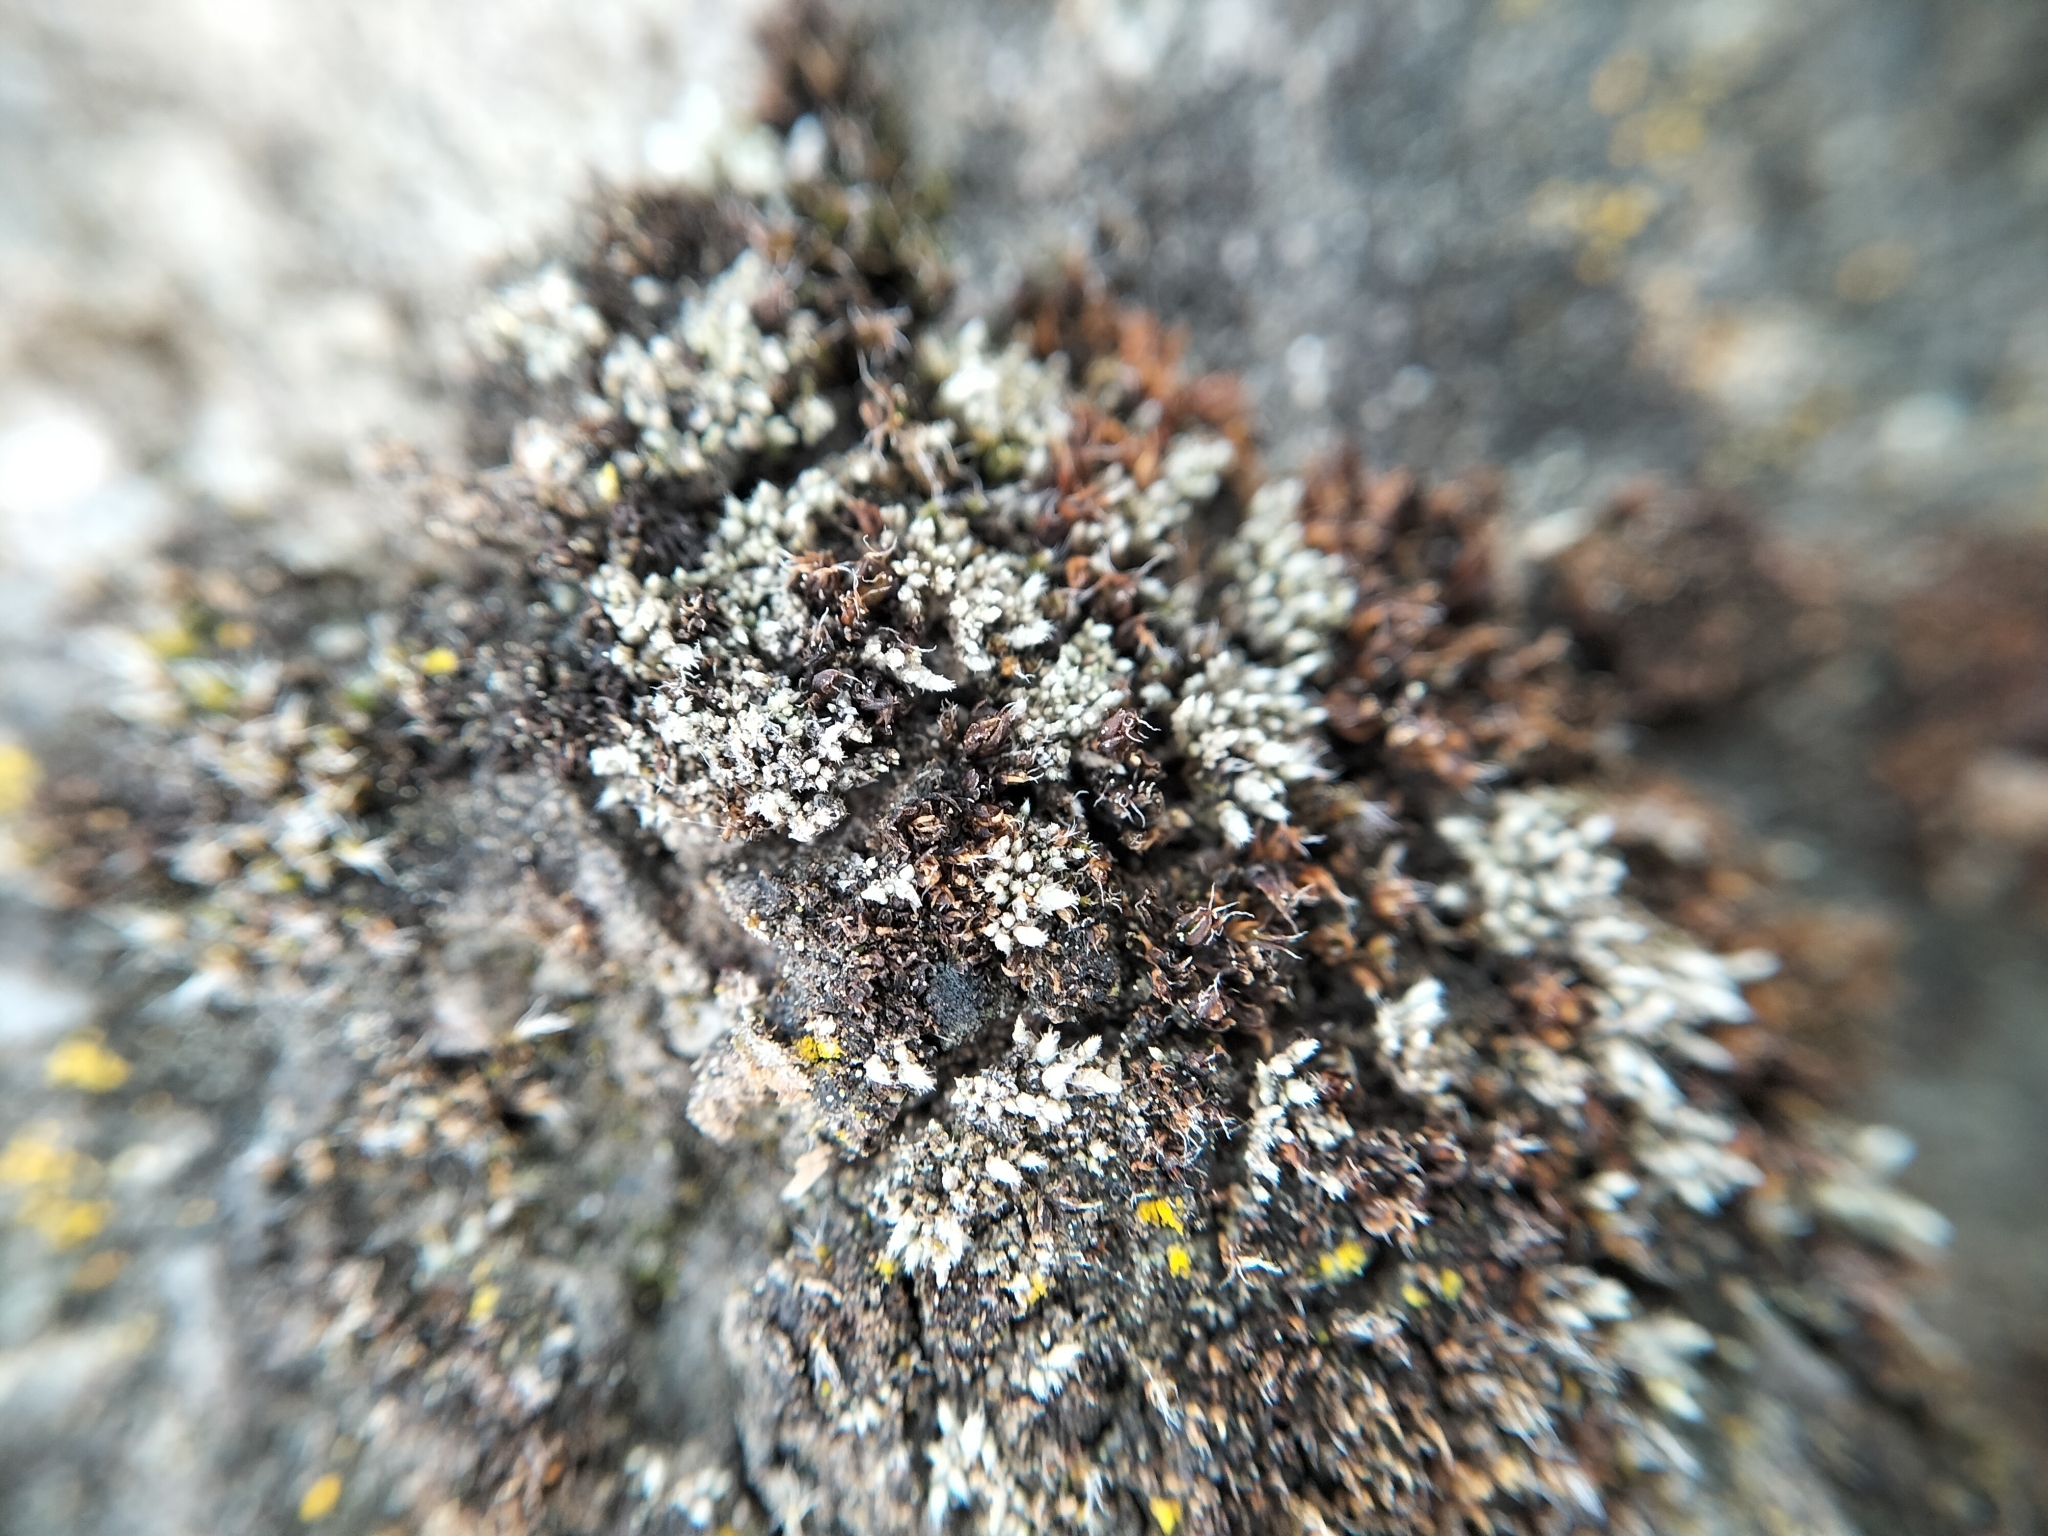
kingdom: Plantae
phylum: Bryophyta
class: Bryopsida
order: Bryales
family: Bryaceae
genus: Bryum
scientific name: Bryum argenteum
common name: Silver-moss
